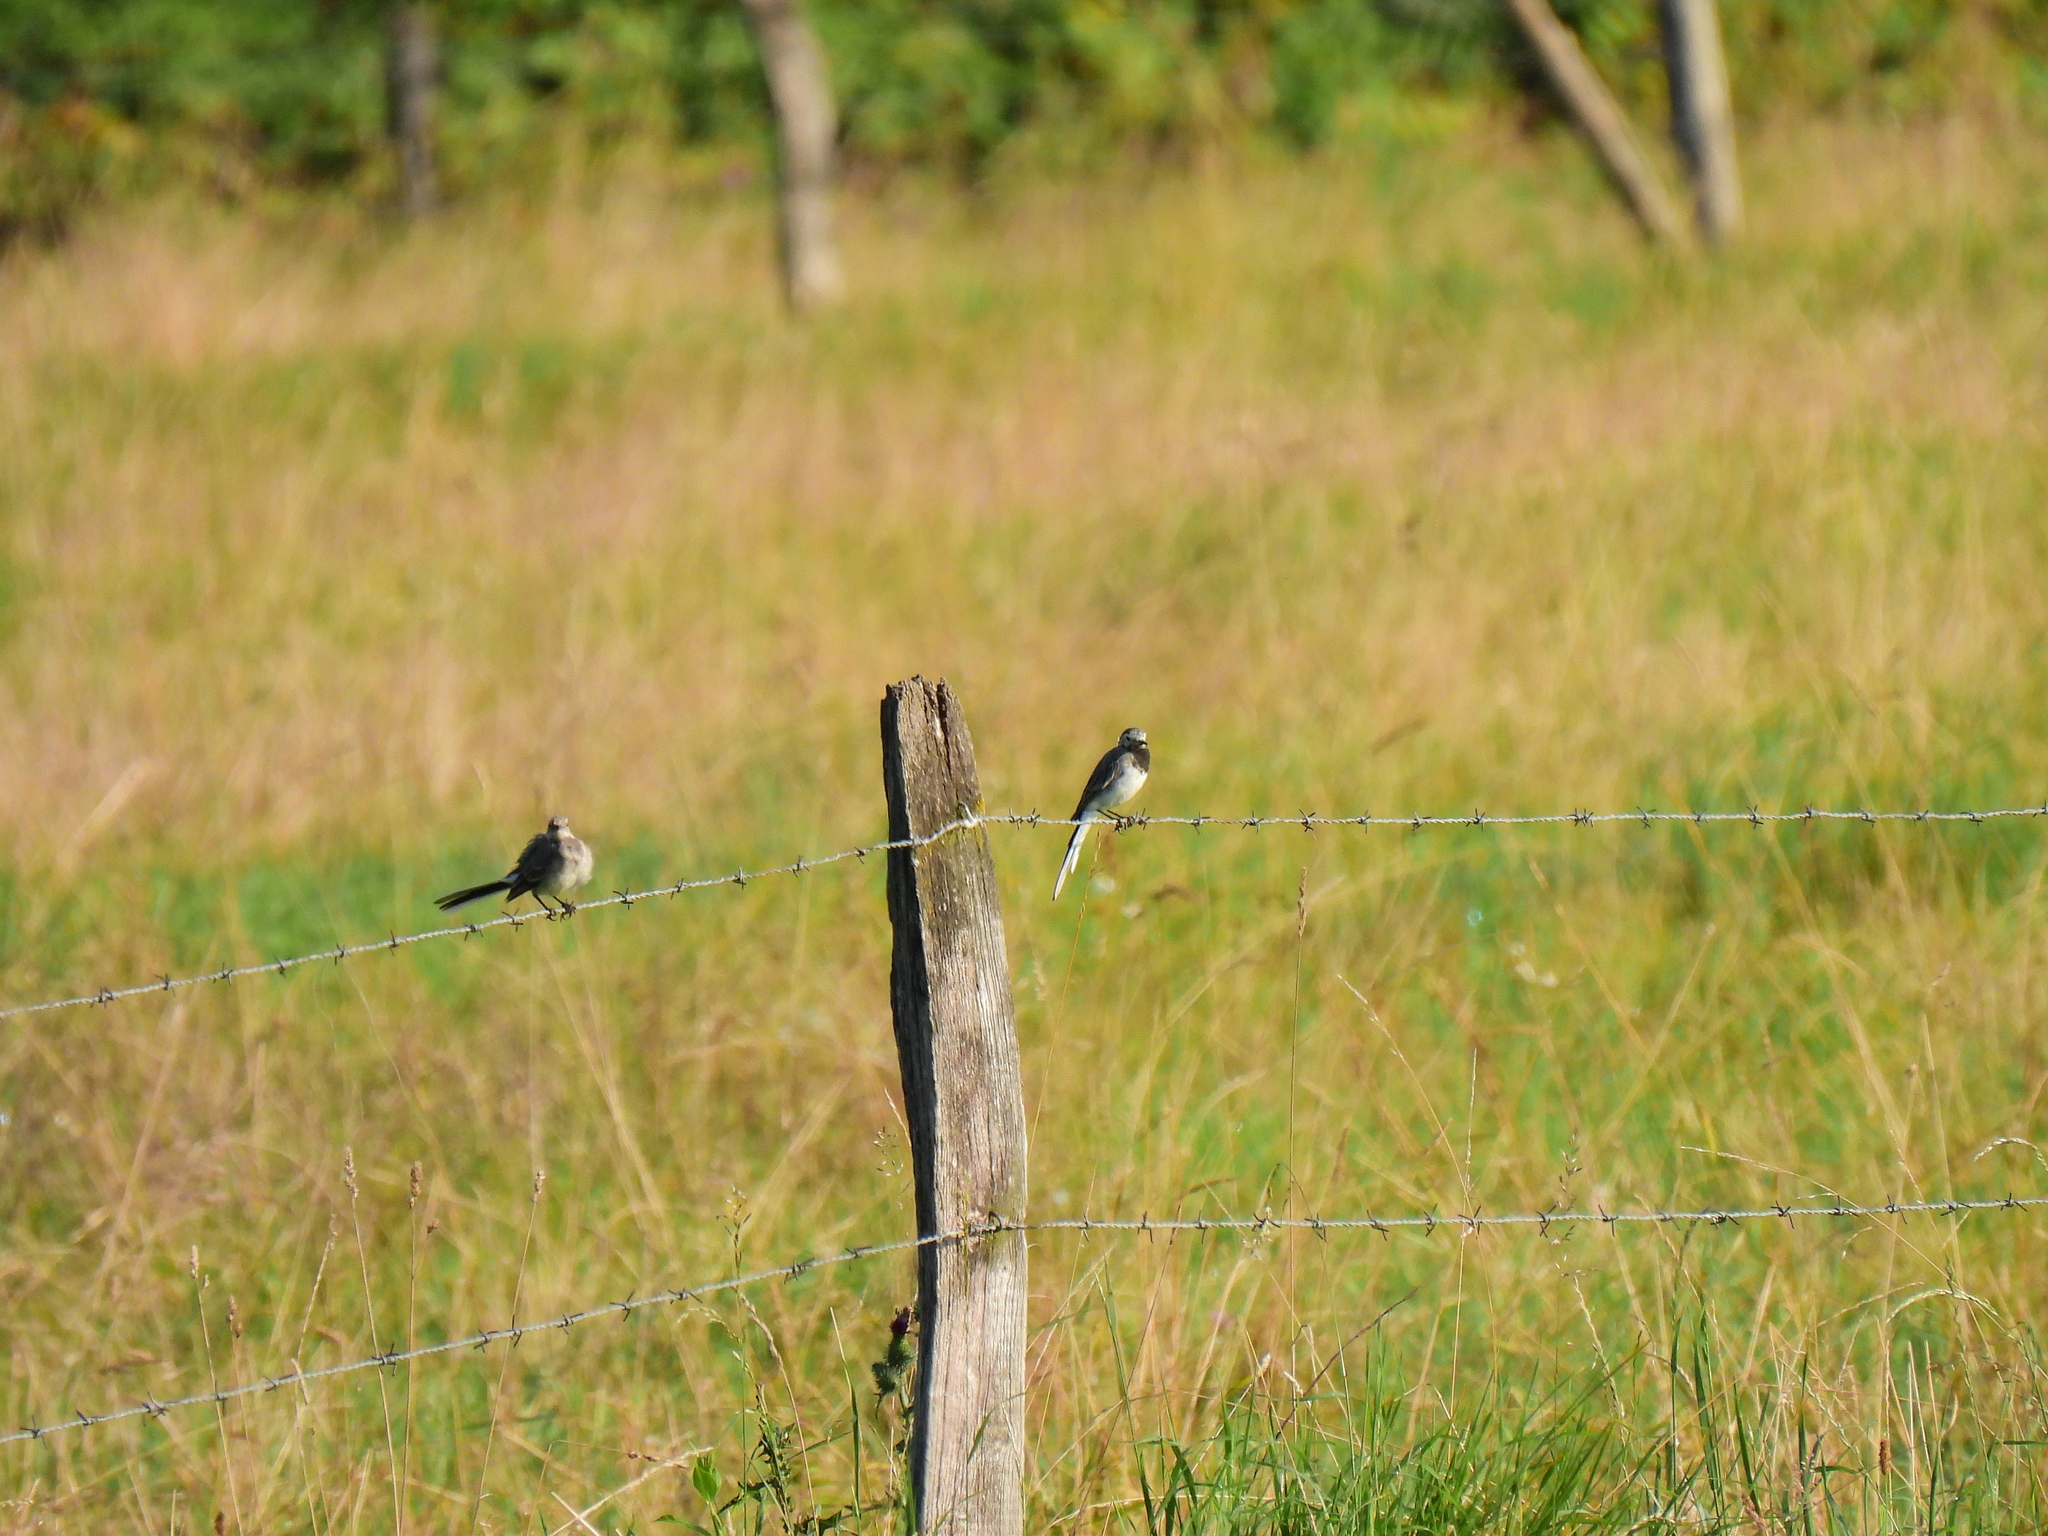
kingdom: Animalia
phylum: Chordata
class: Aves
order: Passeriformes
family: Motacillidae
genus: Motacilla
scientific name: Motacilla alba
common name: White wagtail
